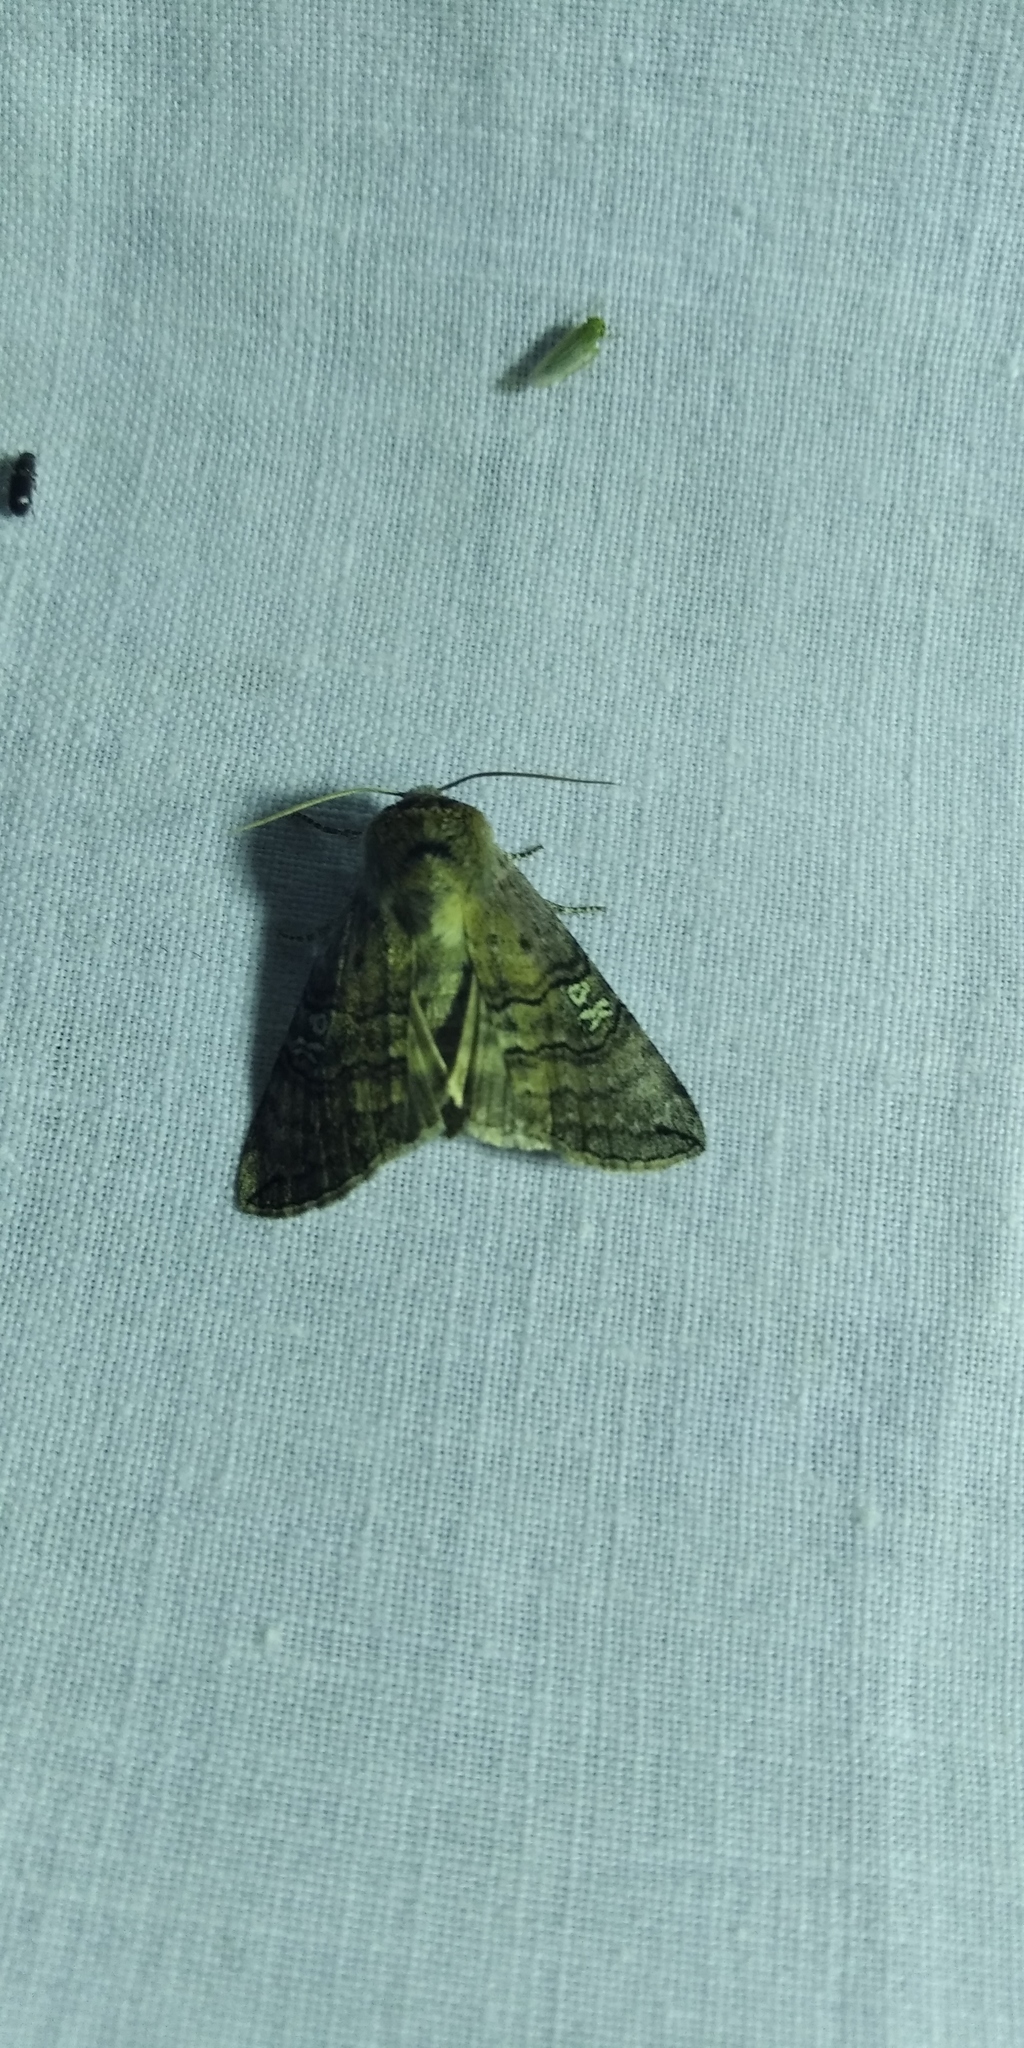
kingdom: Animalia
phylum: Arthropoda
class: Insecta
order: Lepidoptera
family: Drepanidae
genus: Tethea
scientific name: Tethea ocularis
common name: Figure of eighty
